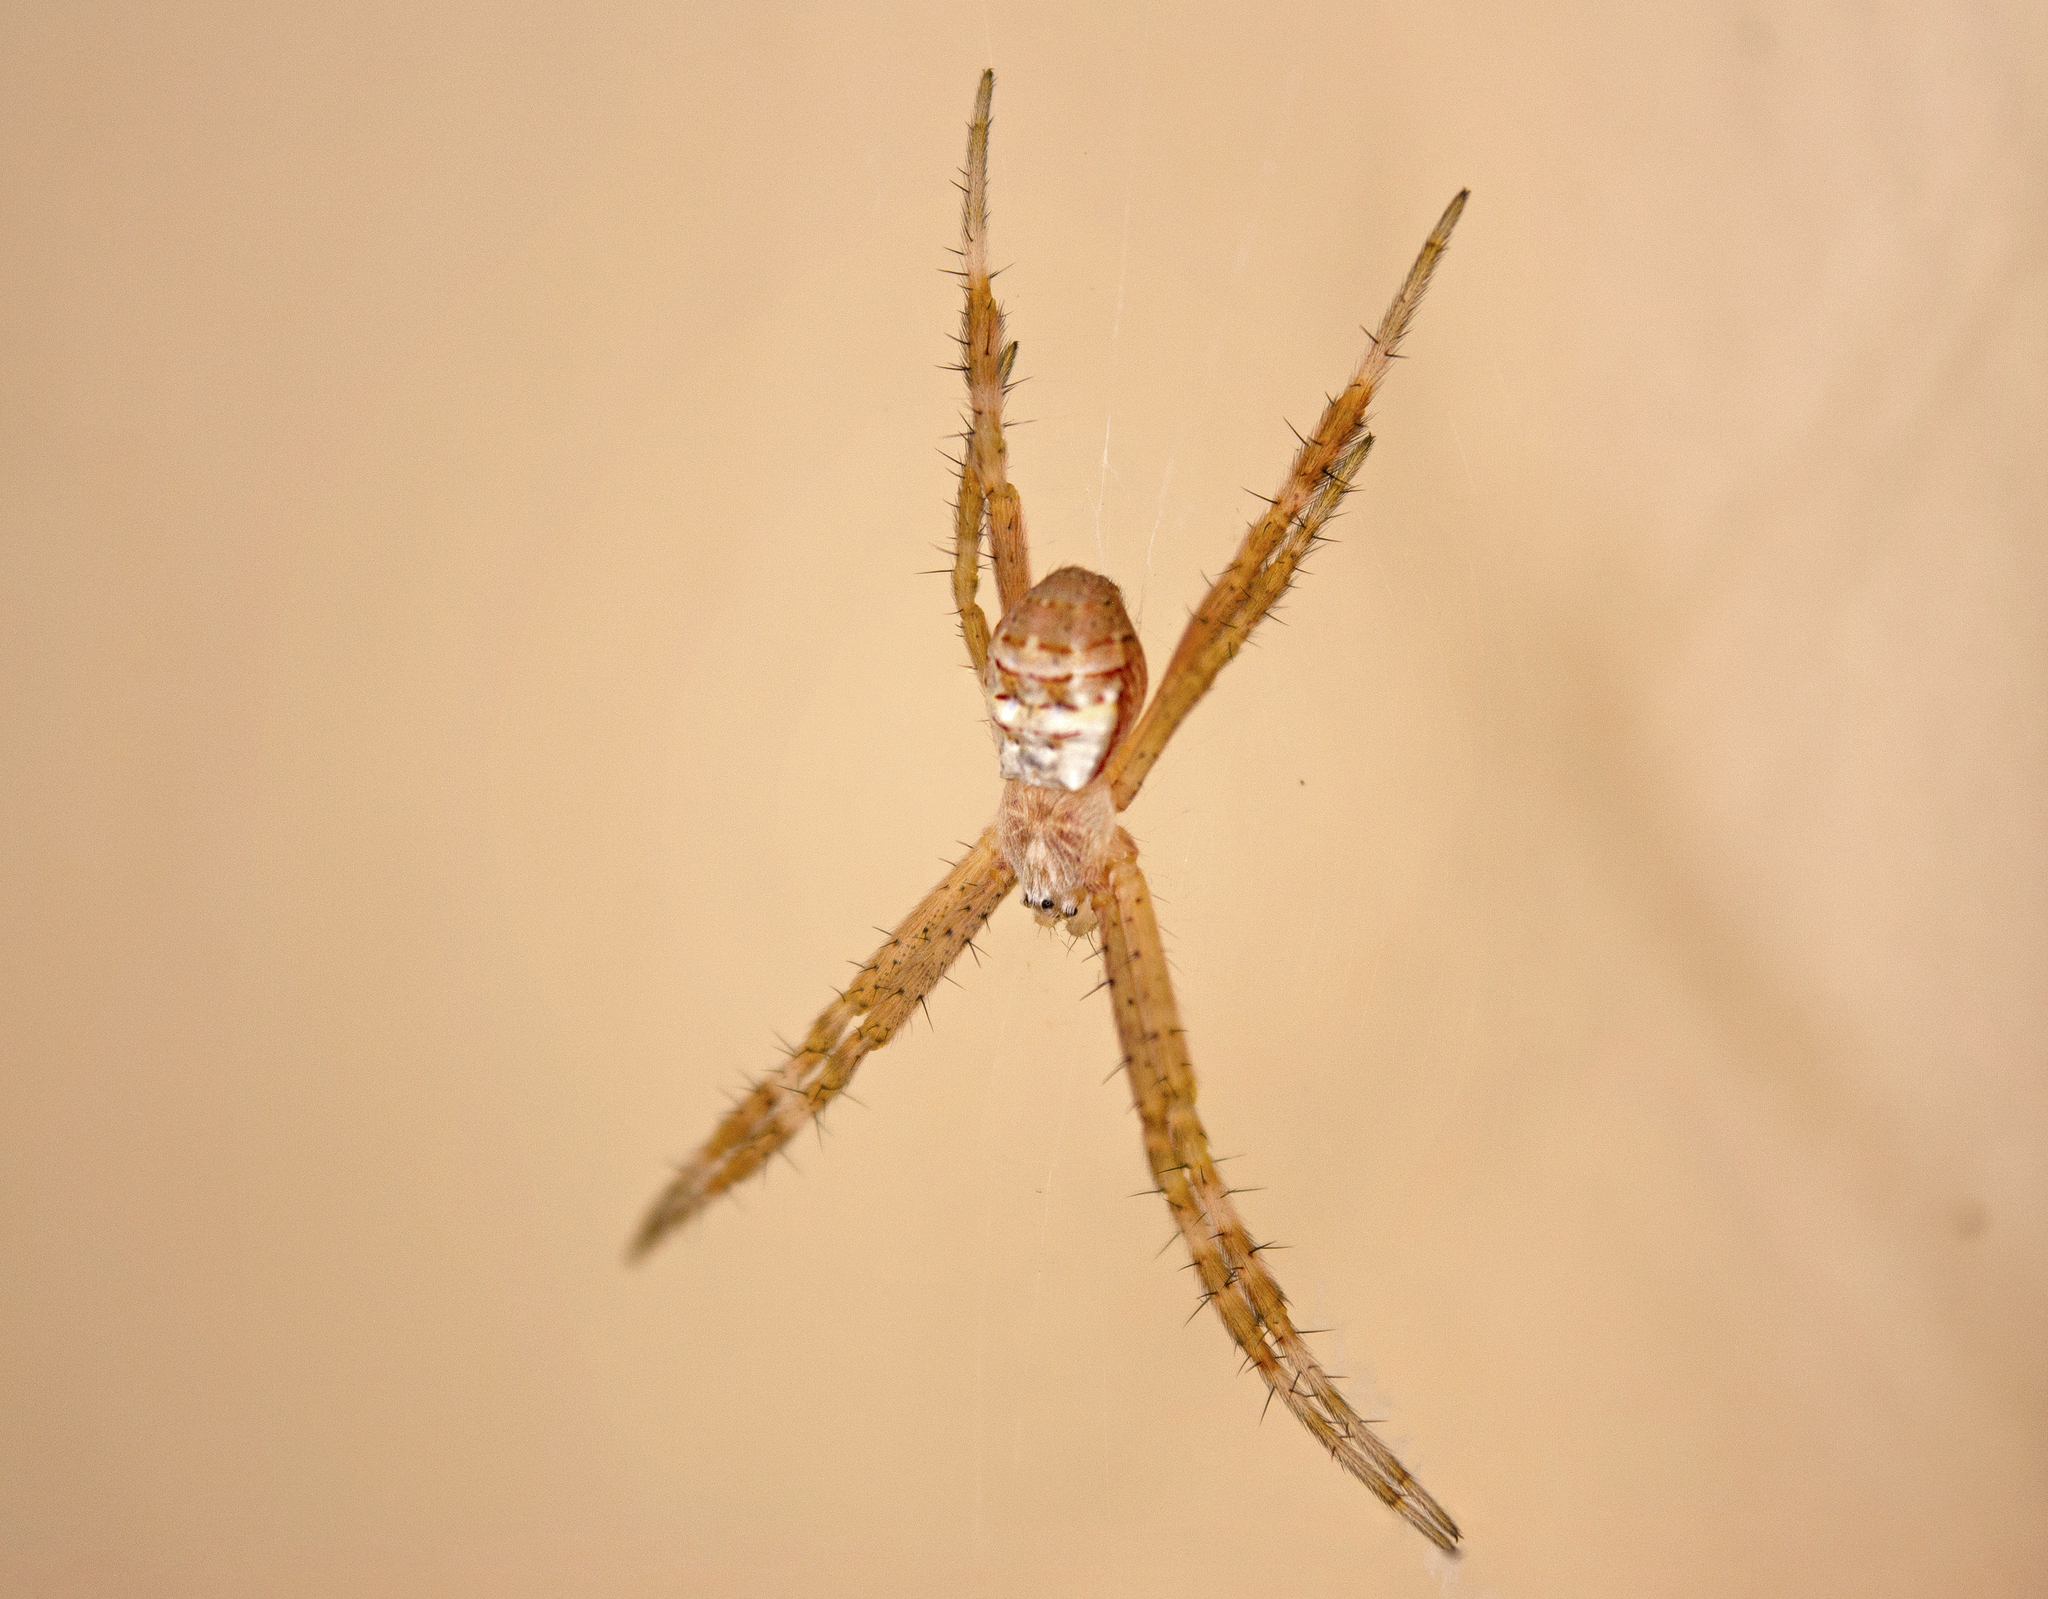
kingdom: Animalia
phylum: Arthropoda
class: Arachnida
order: Araneae
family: Araneidae
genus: Argiope
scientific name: Argiope keyserlingi
